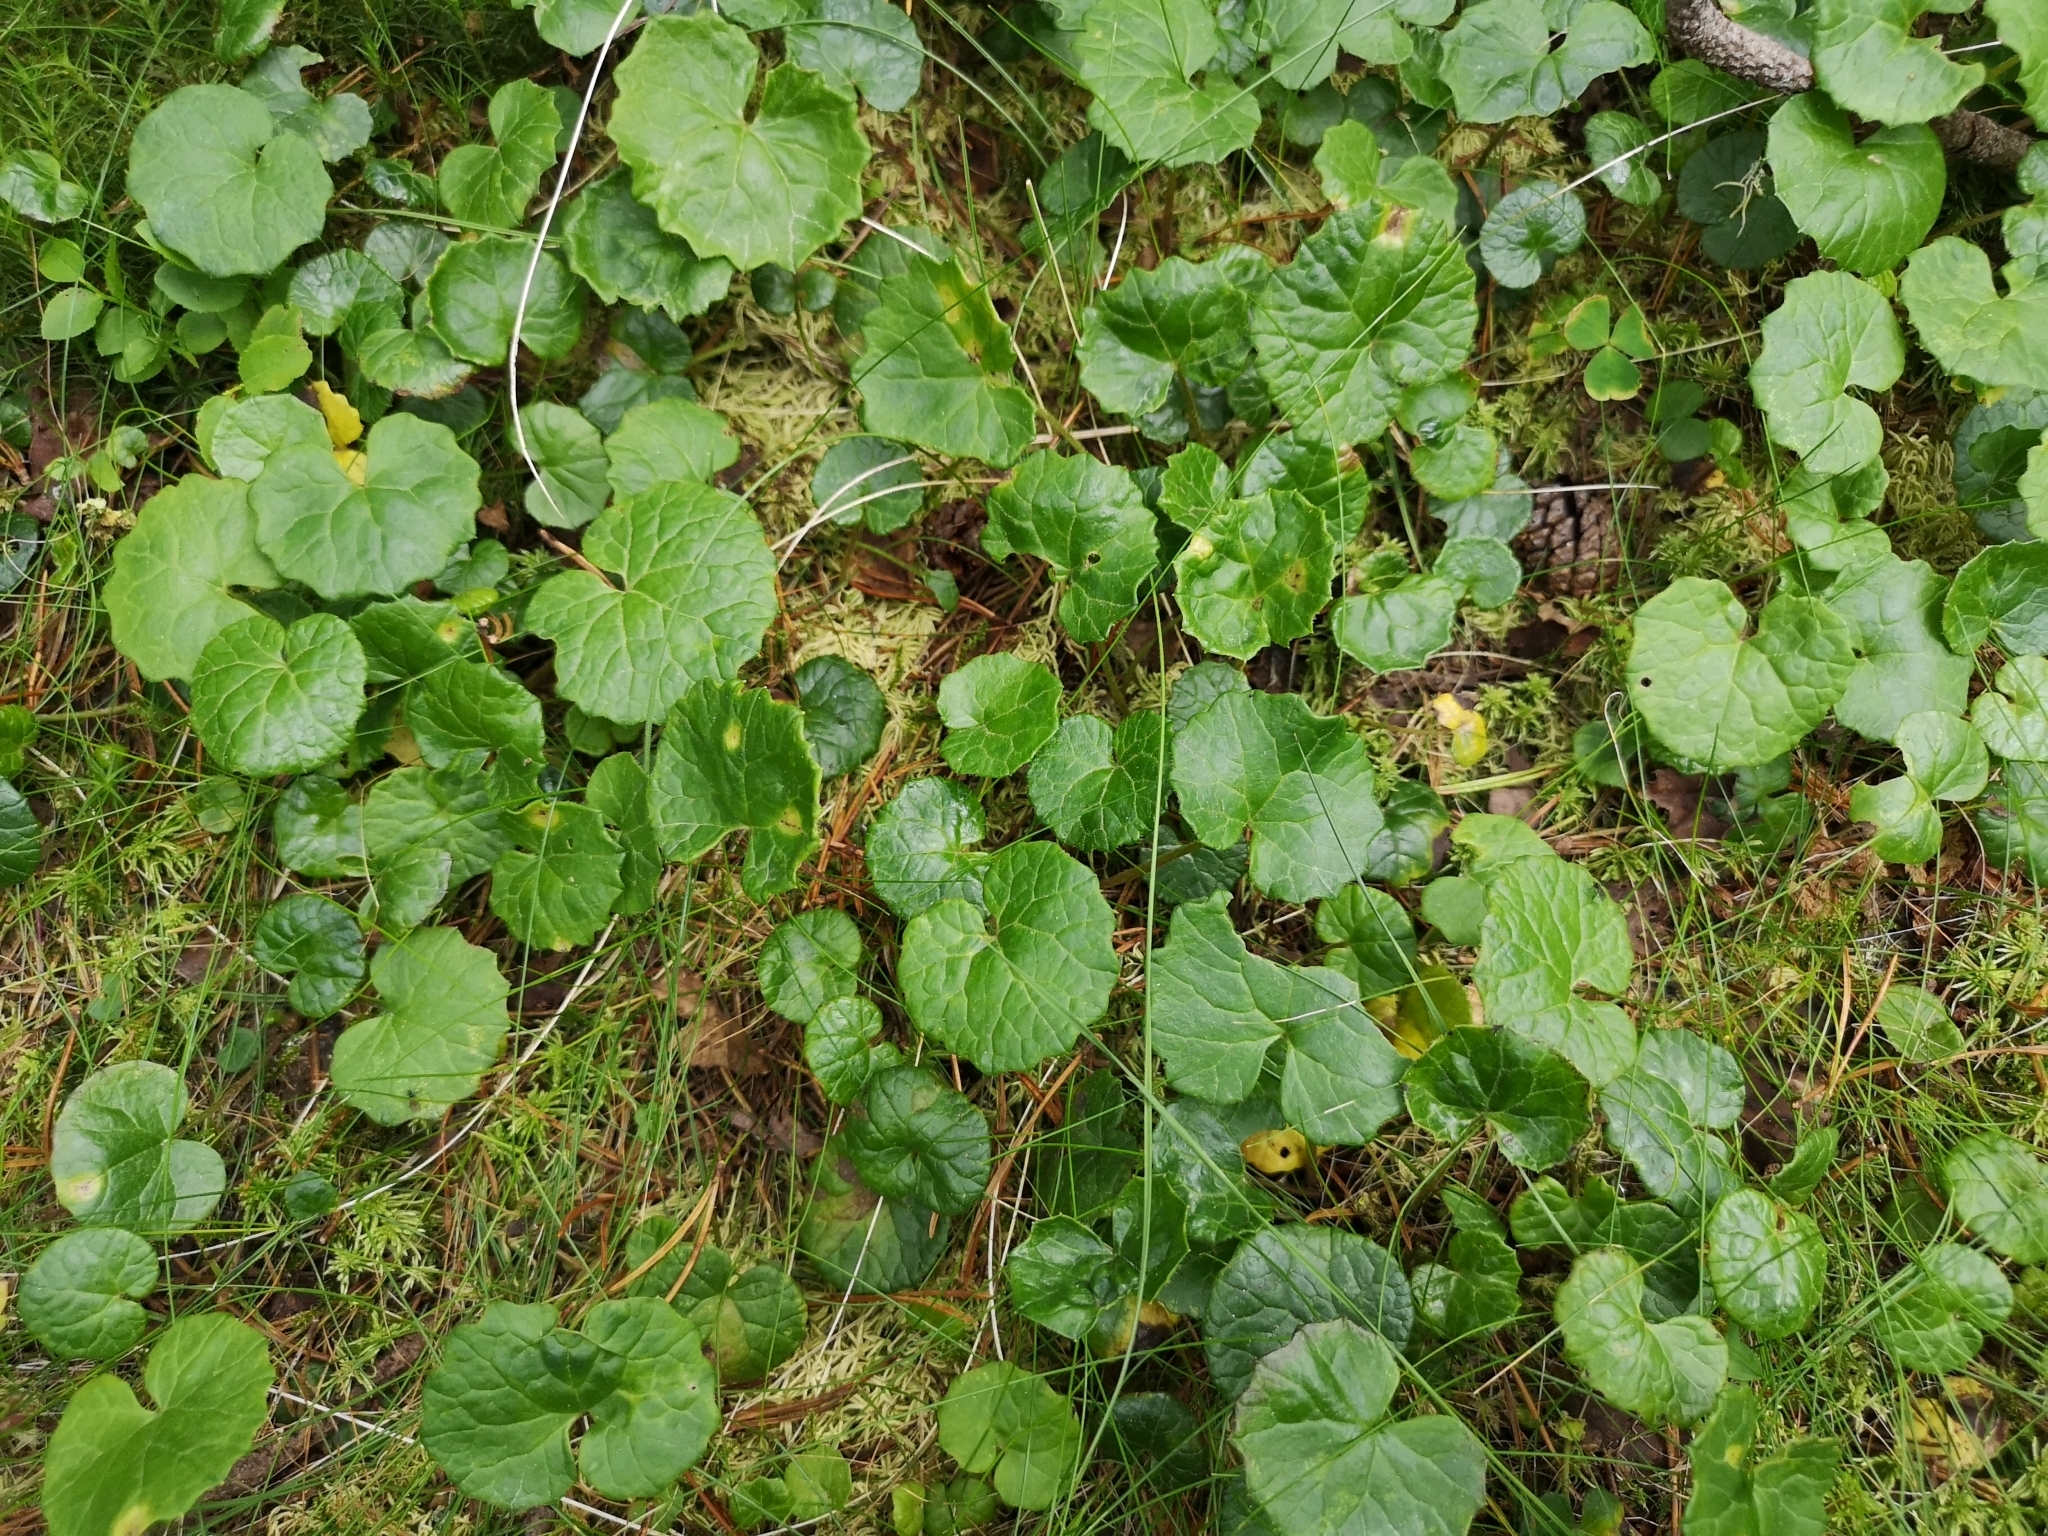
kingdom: Plantae
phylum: Tracheophyta
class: Magnoliopsida
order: Asterales
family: Asteraceae
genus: Homogyne
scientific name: Homogyne alpina
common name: Purple colt's-foot
